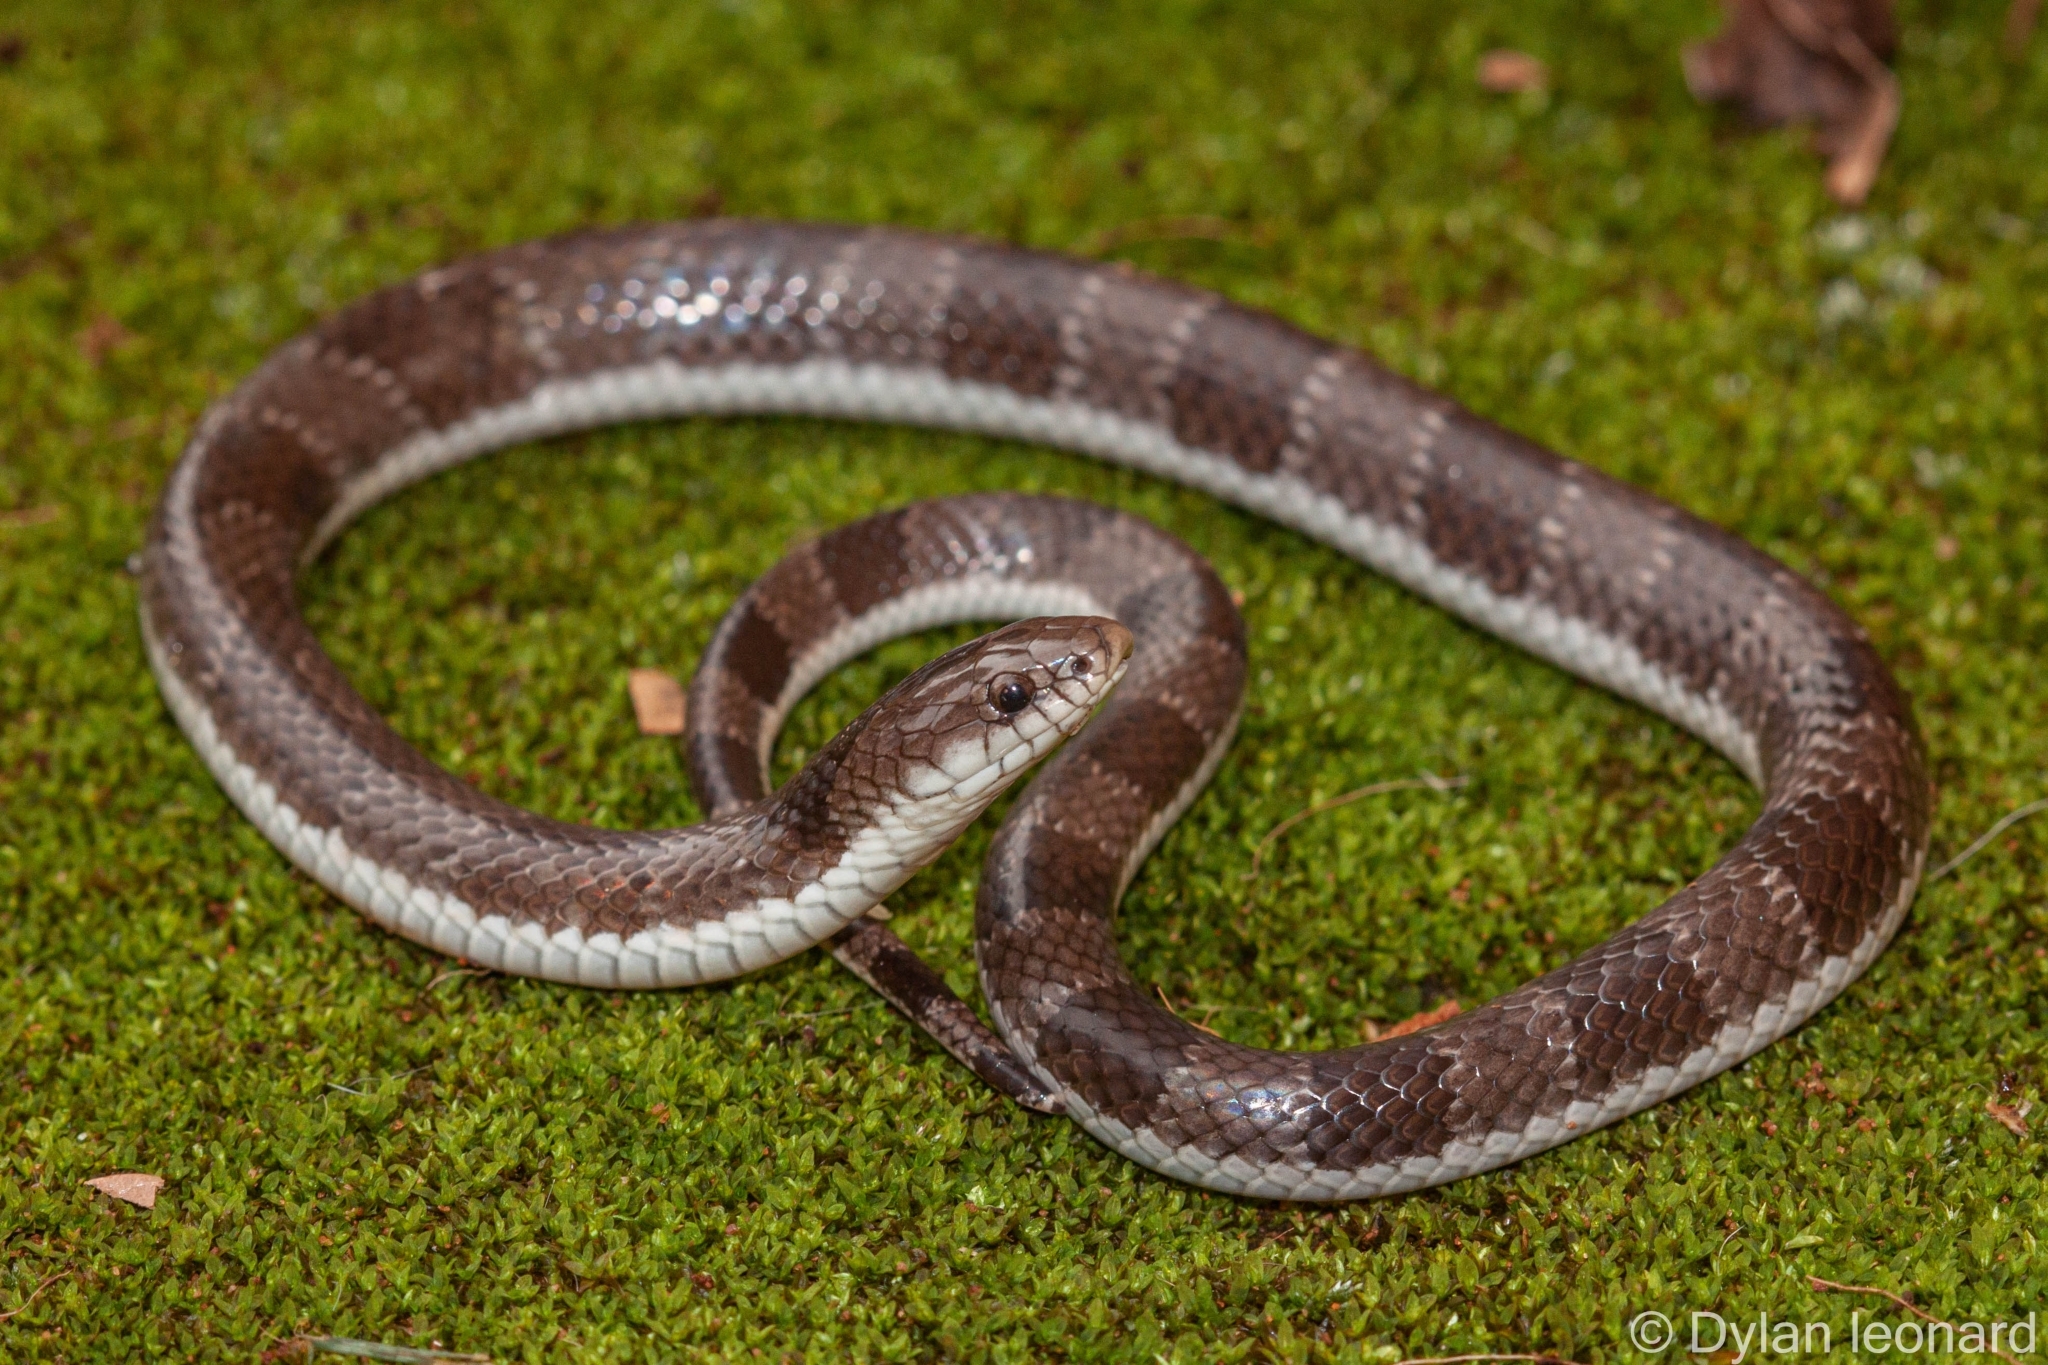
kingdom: Animalia
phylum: Chordata
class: Squamata
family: Elapidae
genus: Elapsoidea
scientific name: Elapsoidea sundevallii
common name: Sundevall's garter snake
